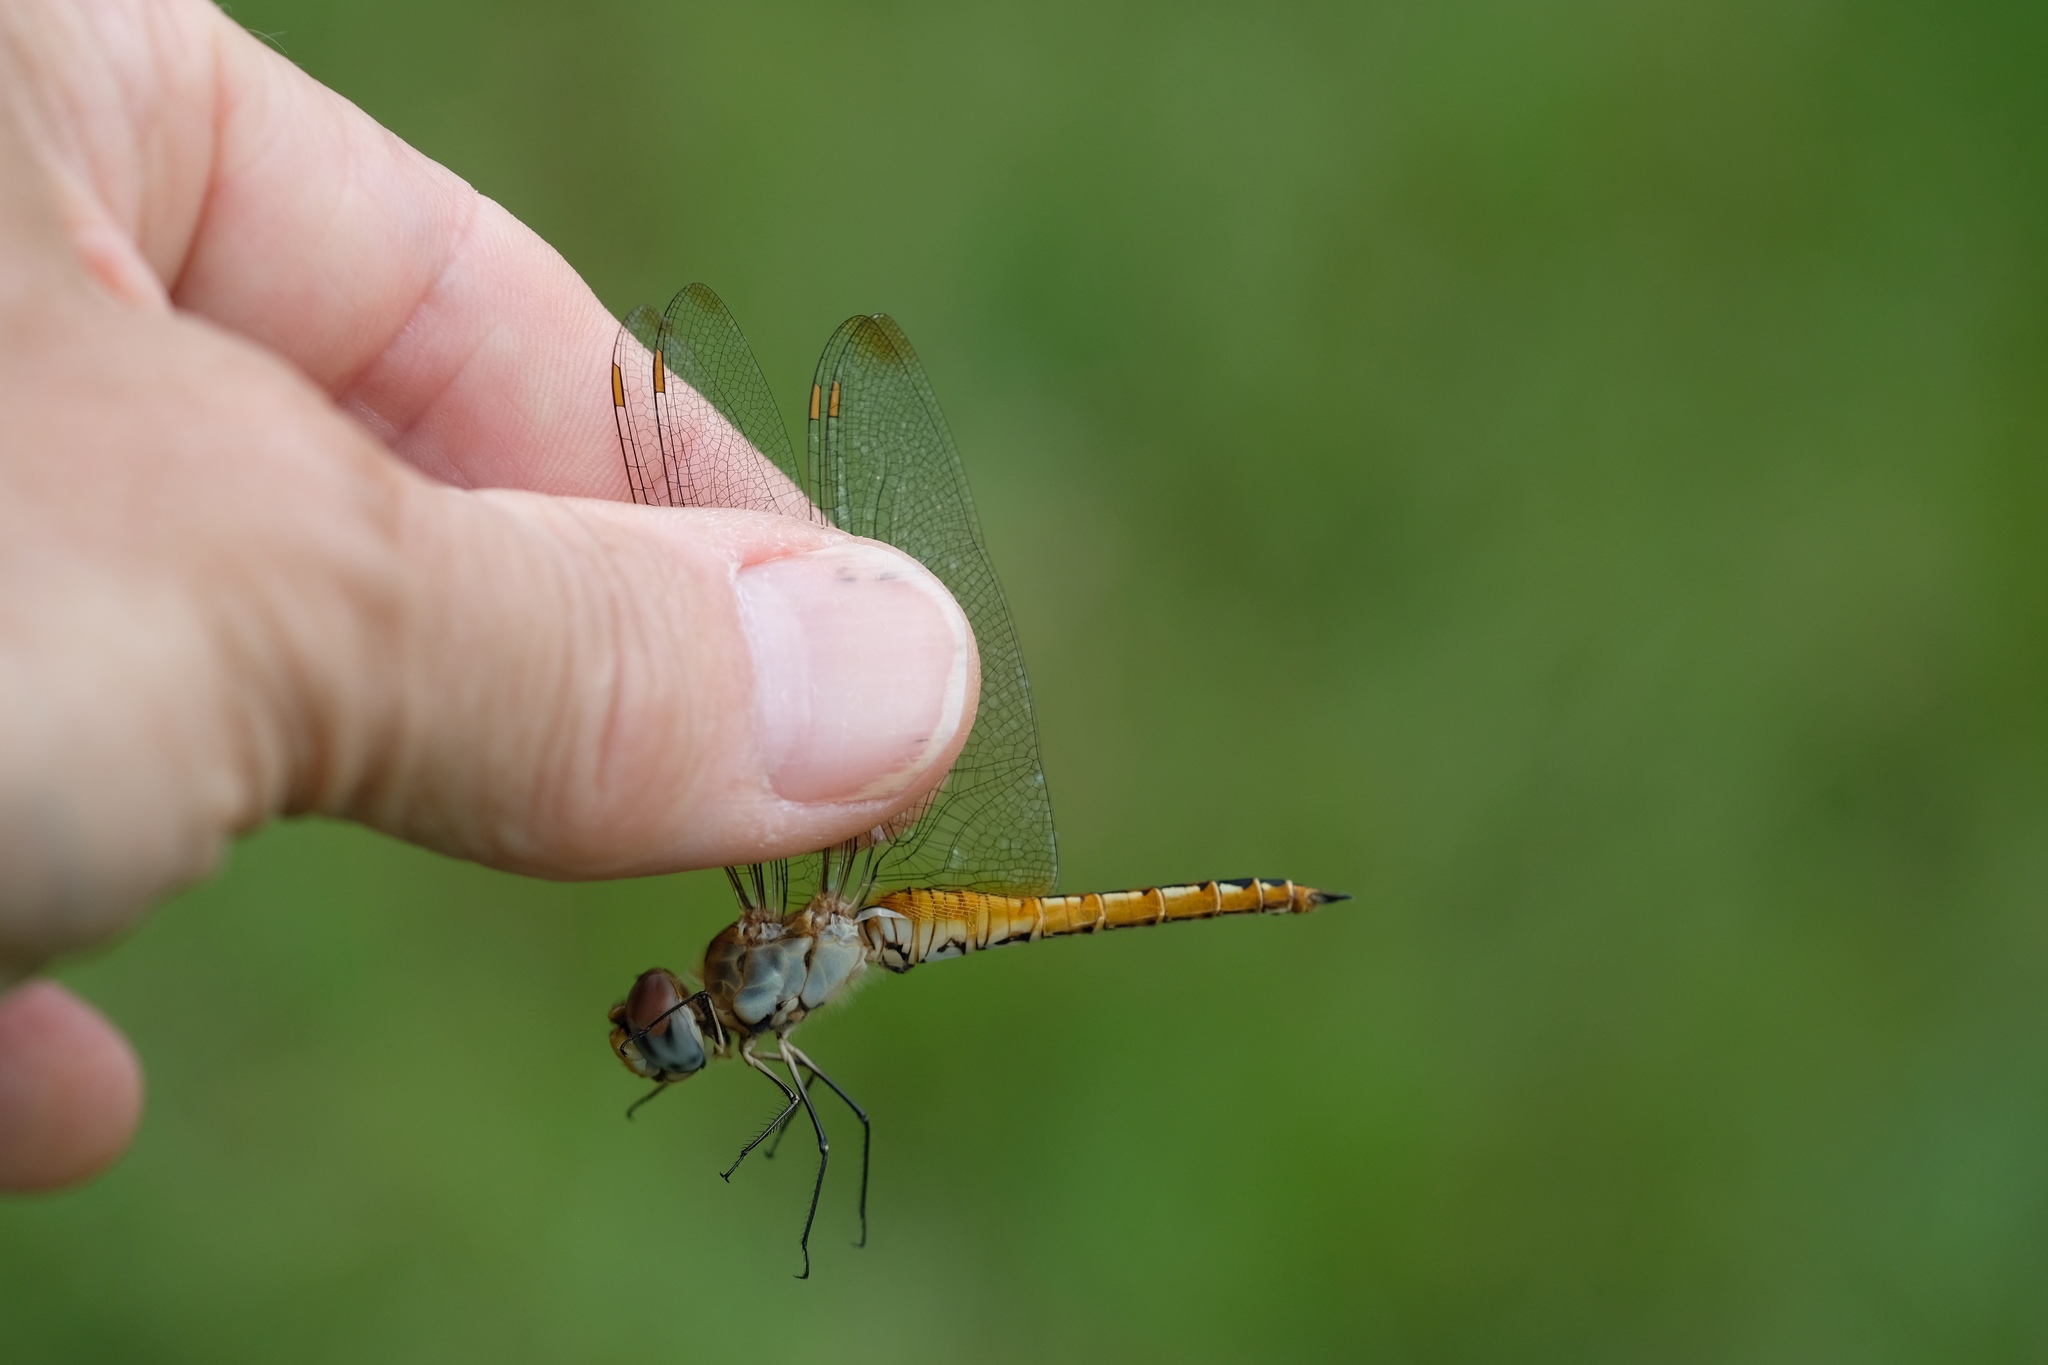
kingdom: Animalia
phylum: Arthropoda
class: Insecta
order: Odonata
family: Libellulidae
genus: Pantala
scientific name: Pantala flavescens
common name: Wandering glider
